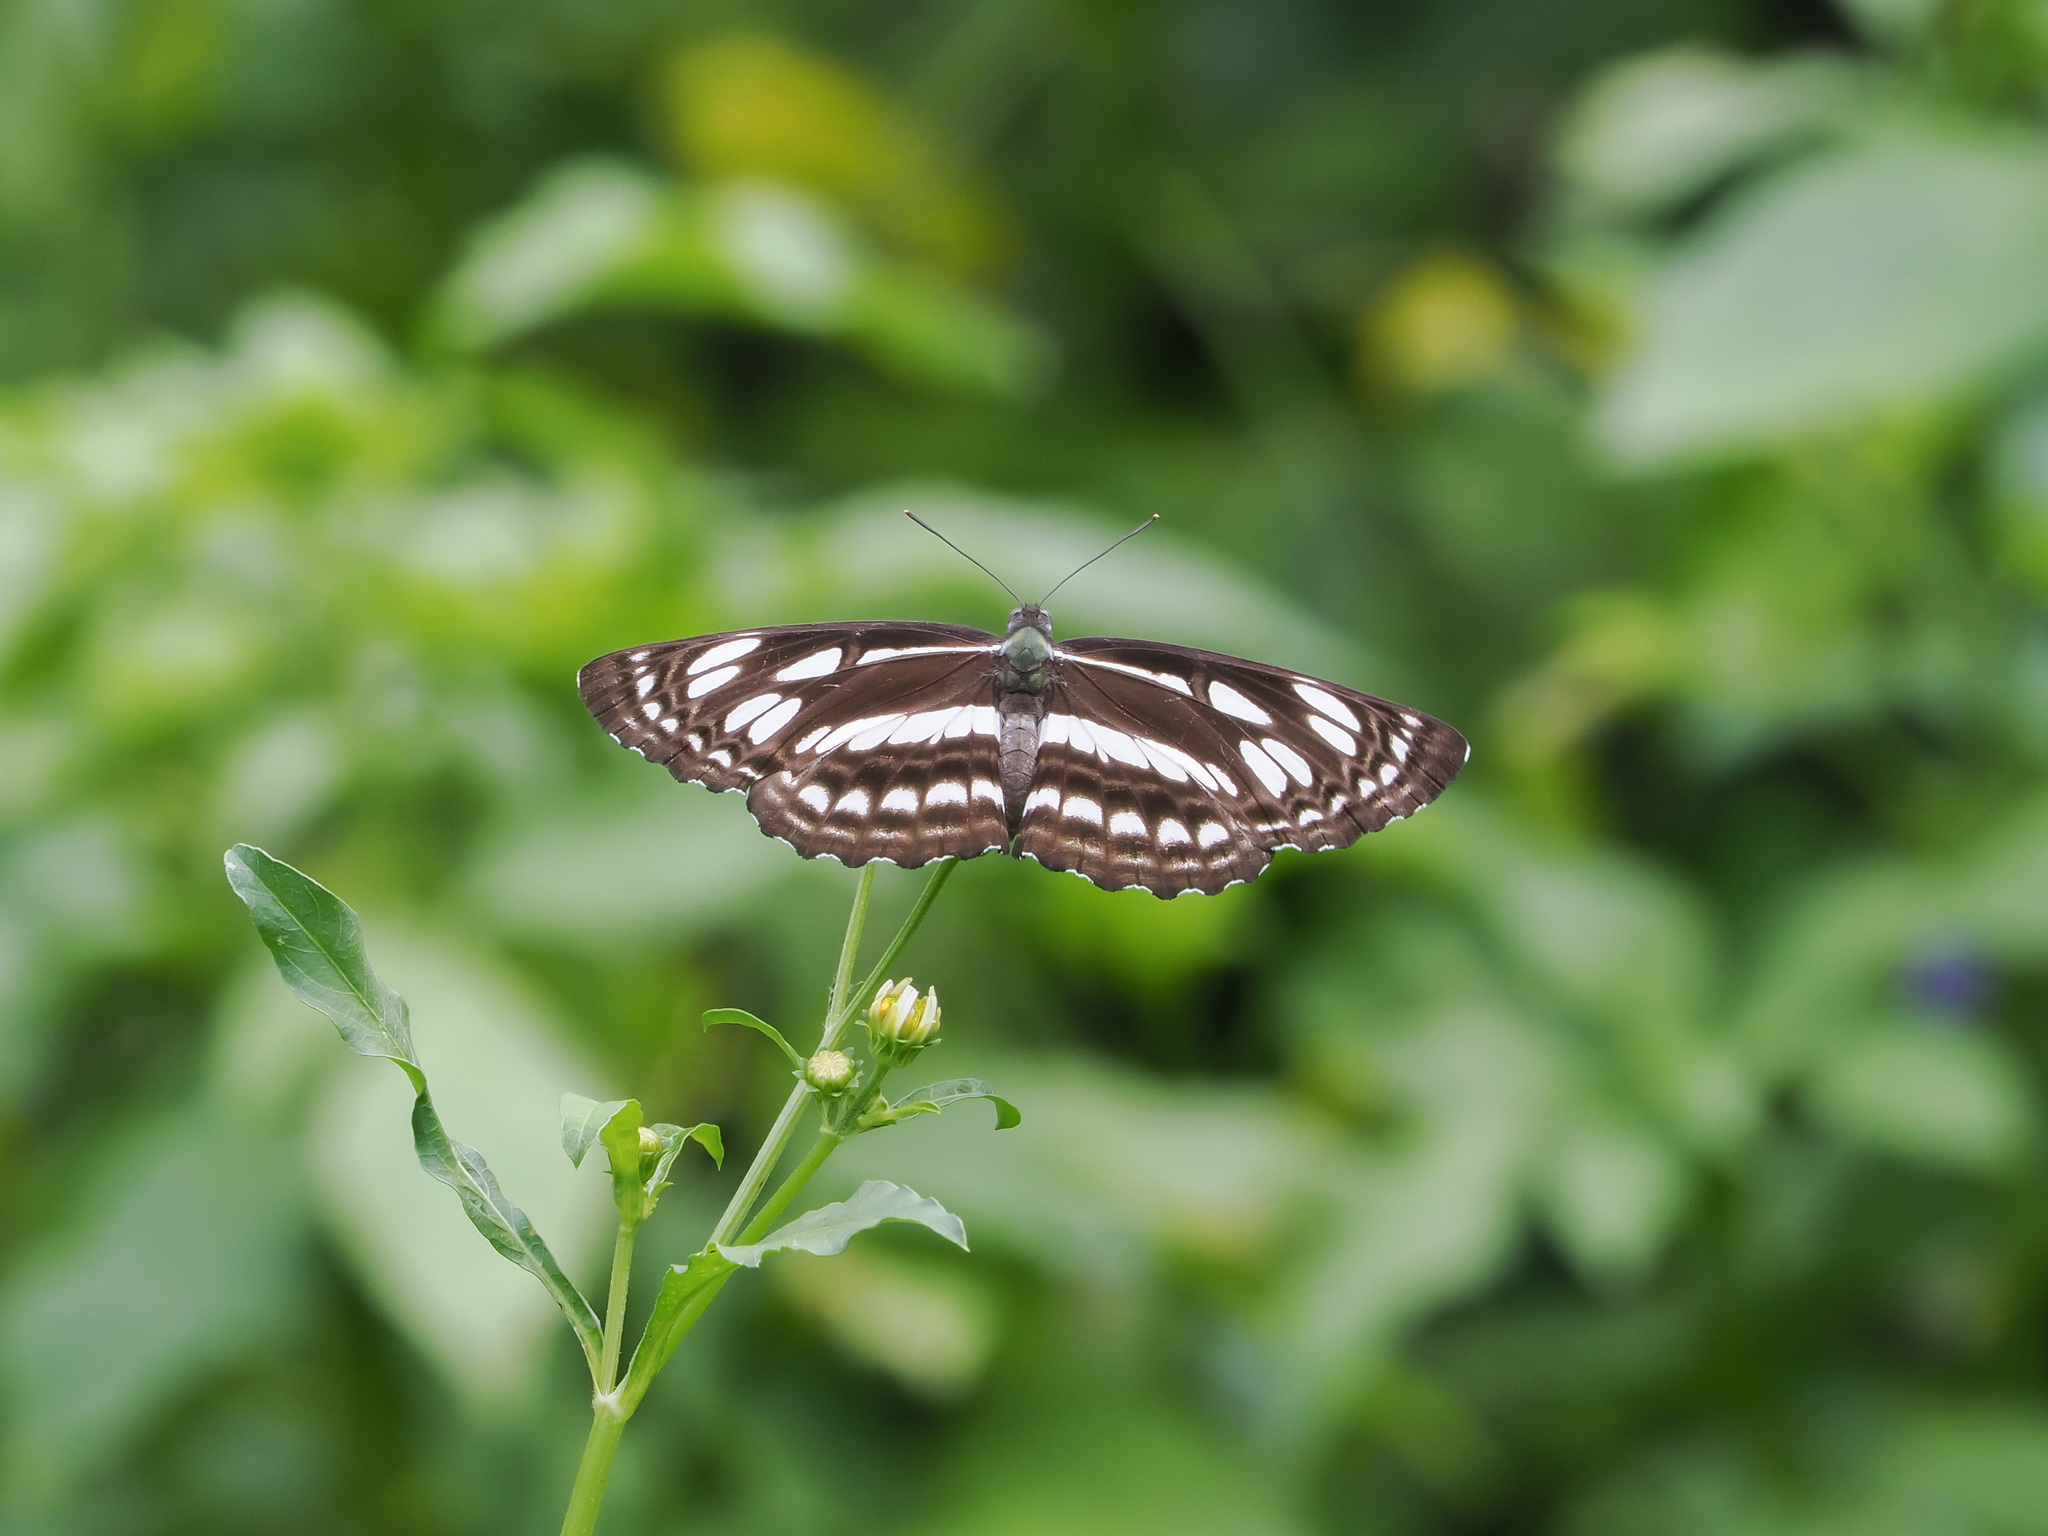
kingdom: Animalia
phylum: Arthropoda
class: Insecta
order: Lepidoptera
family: Nymphalidae
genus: Phaedyma
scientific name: Phaedyma columella
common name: Short banded sailer
